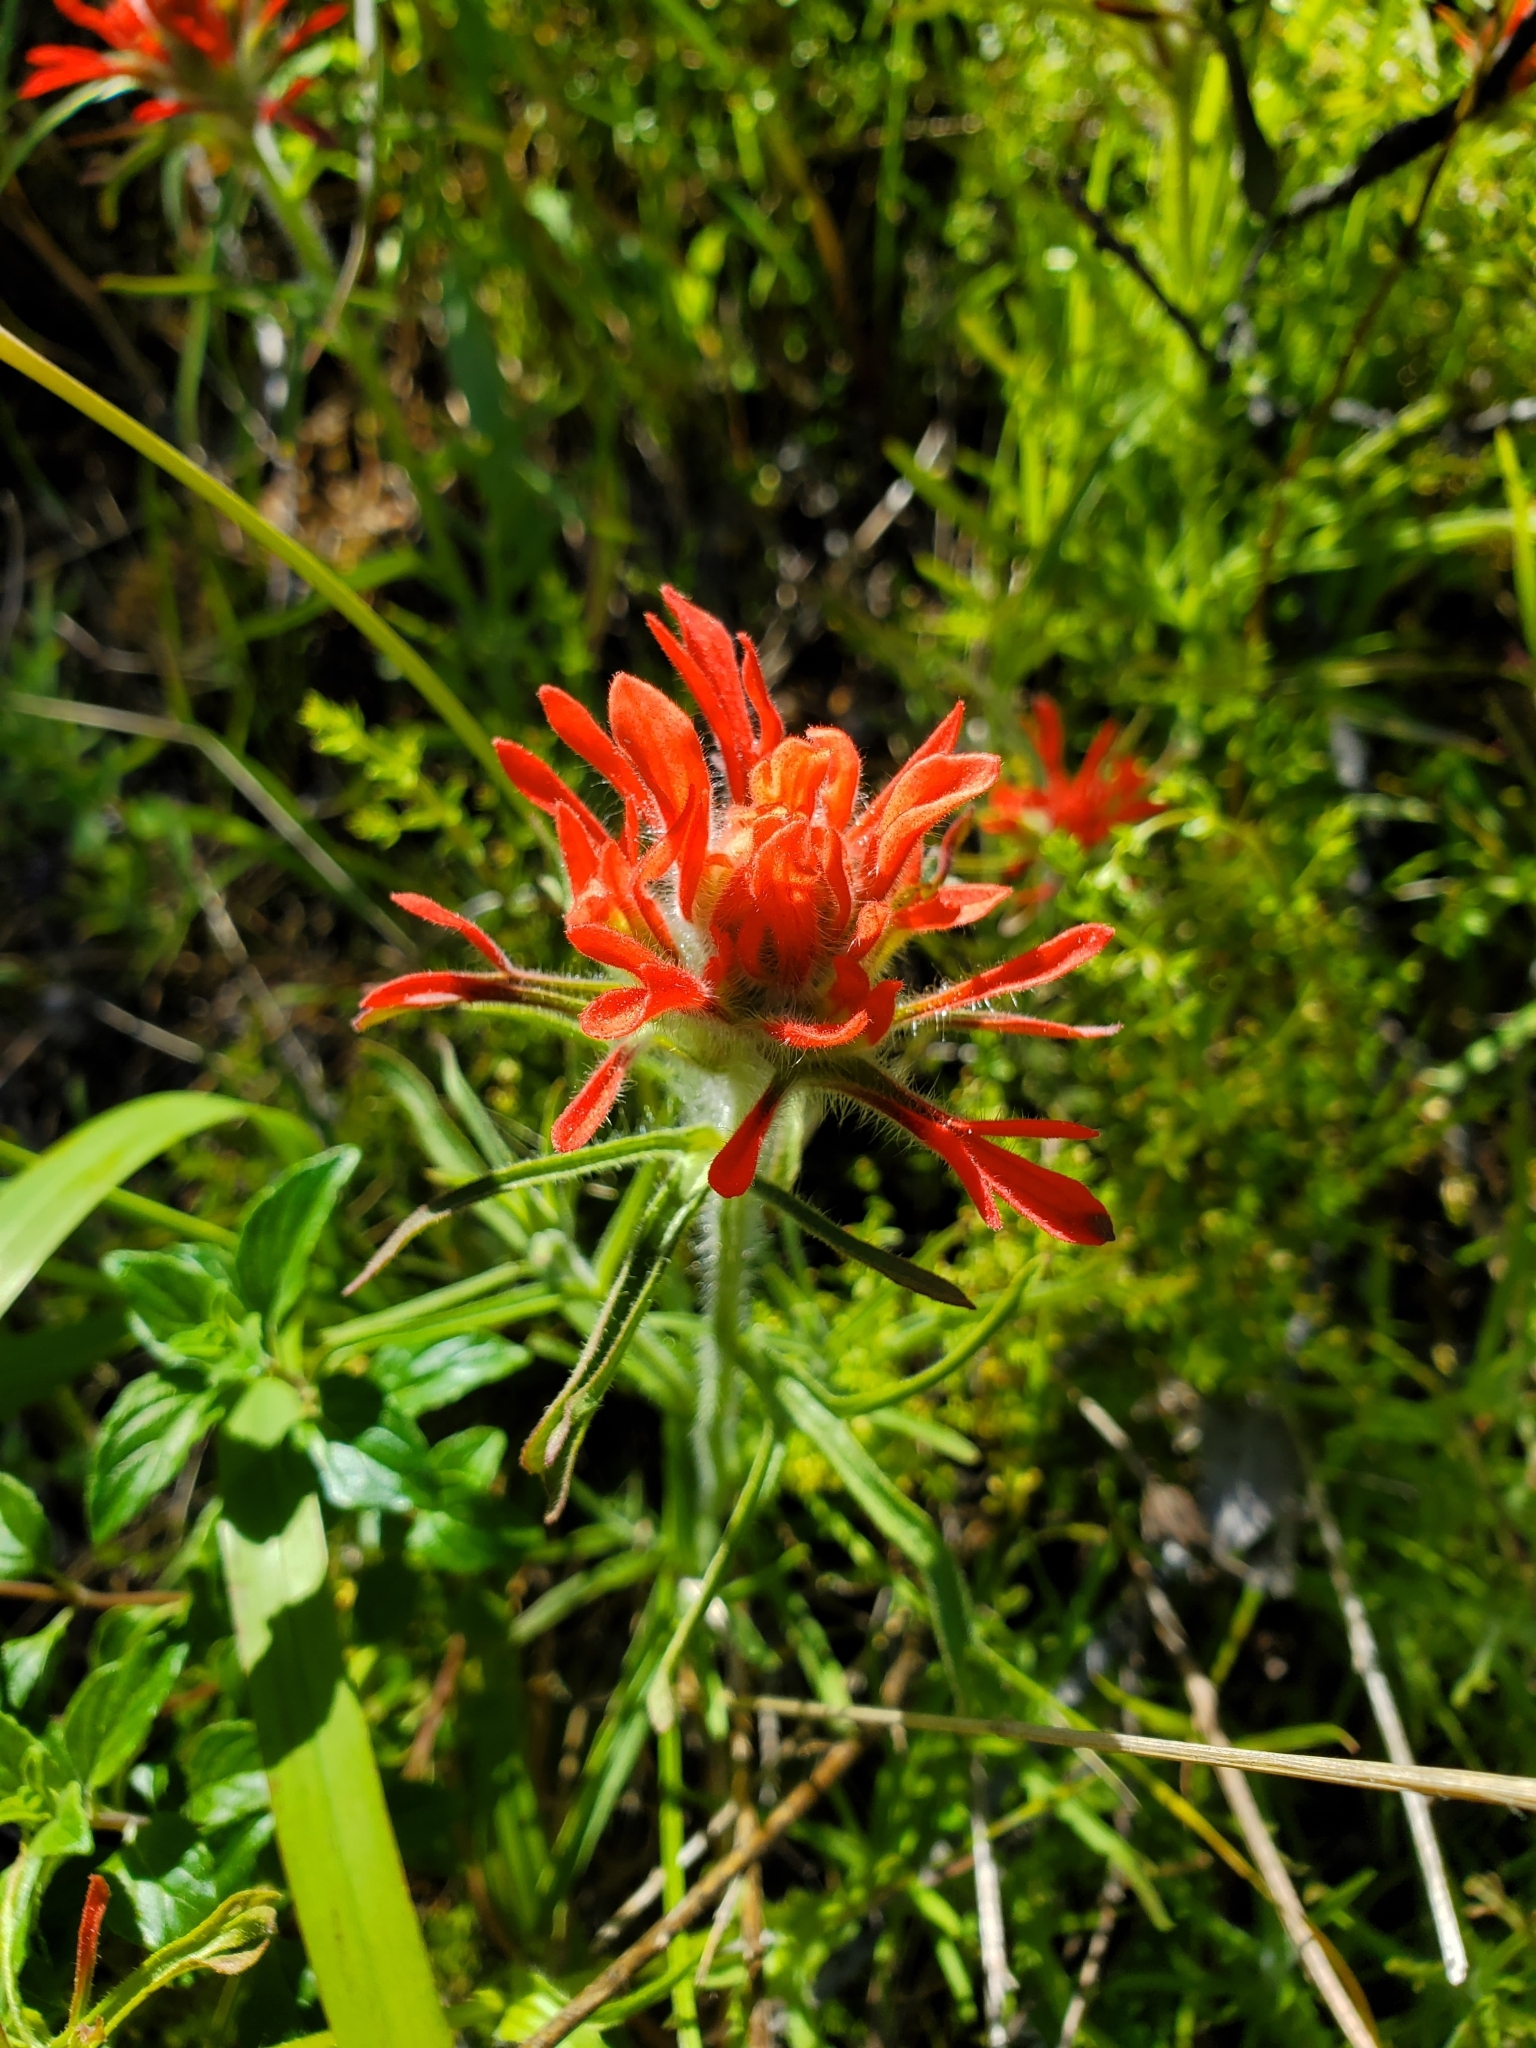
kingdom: Plantae
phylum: Tracheophyta
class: Magnoliopsida
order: Lamiales
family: Orobanchaceae
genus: Castilleja
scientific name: Castilleja affinis
